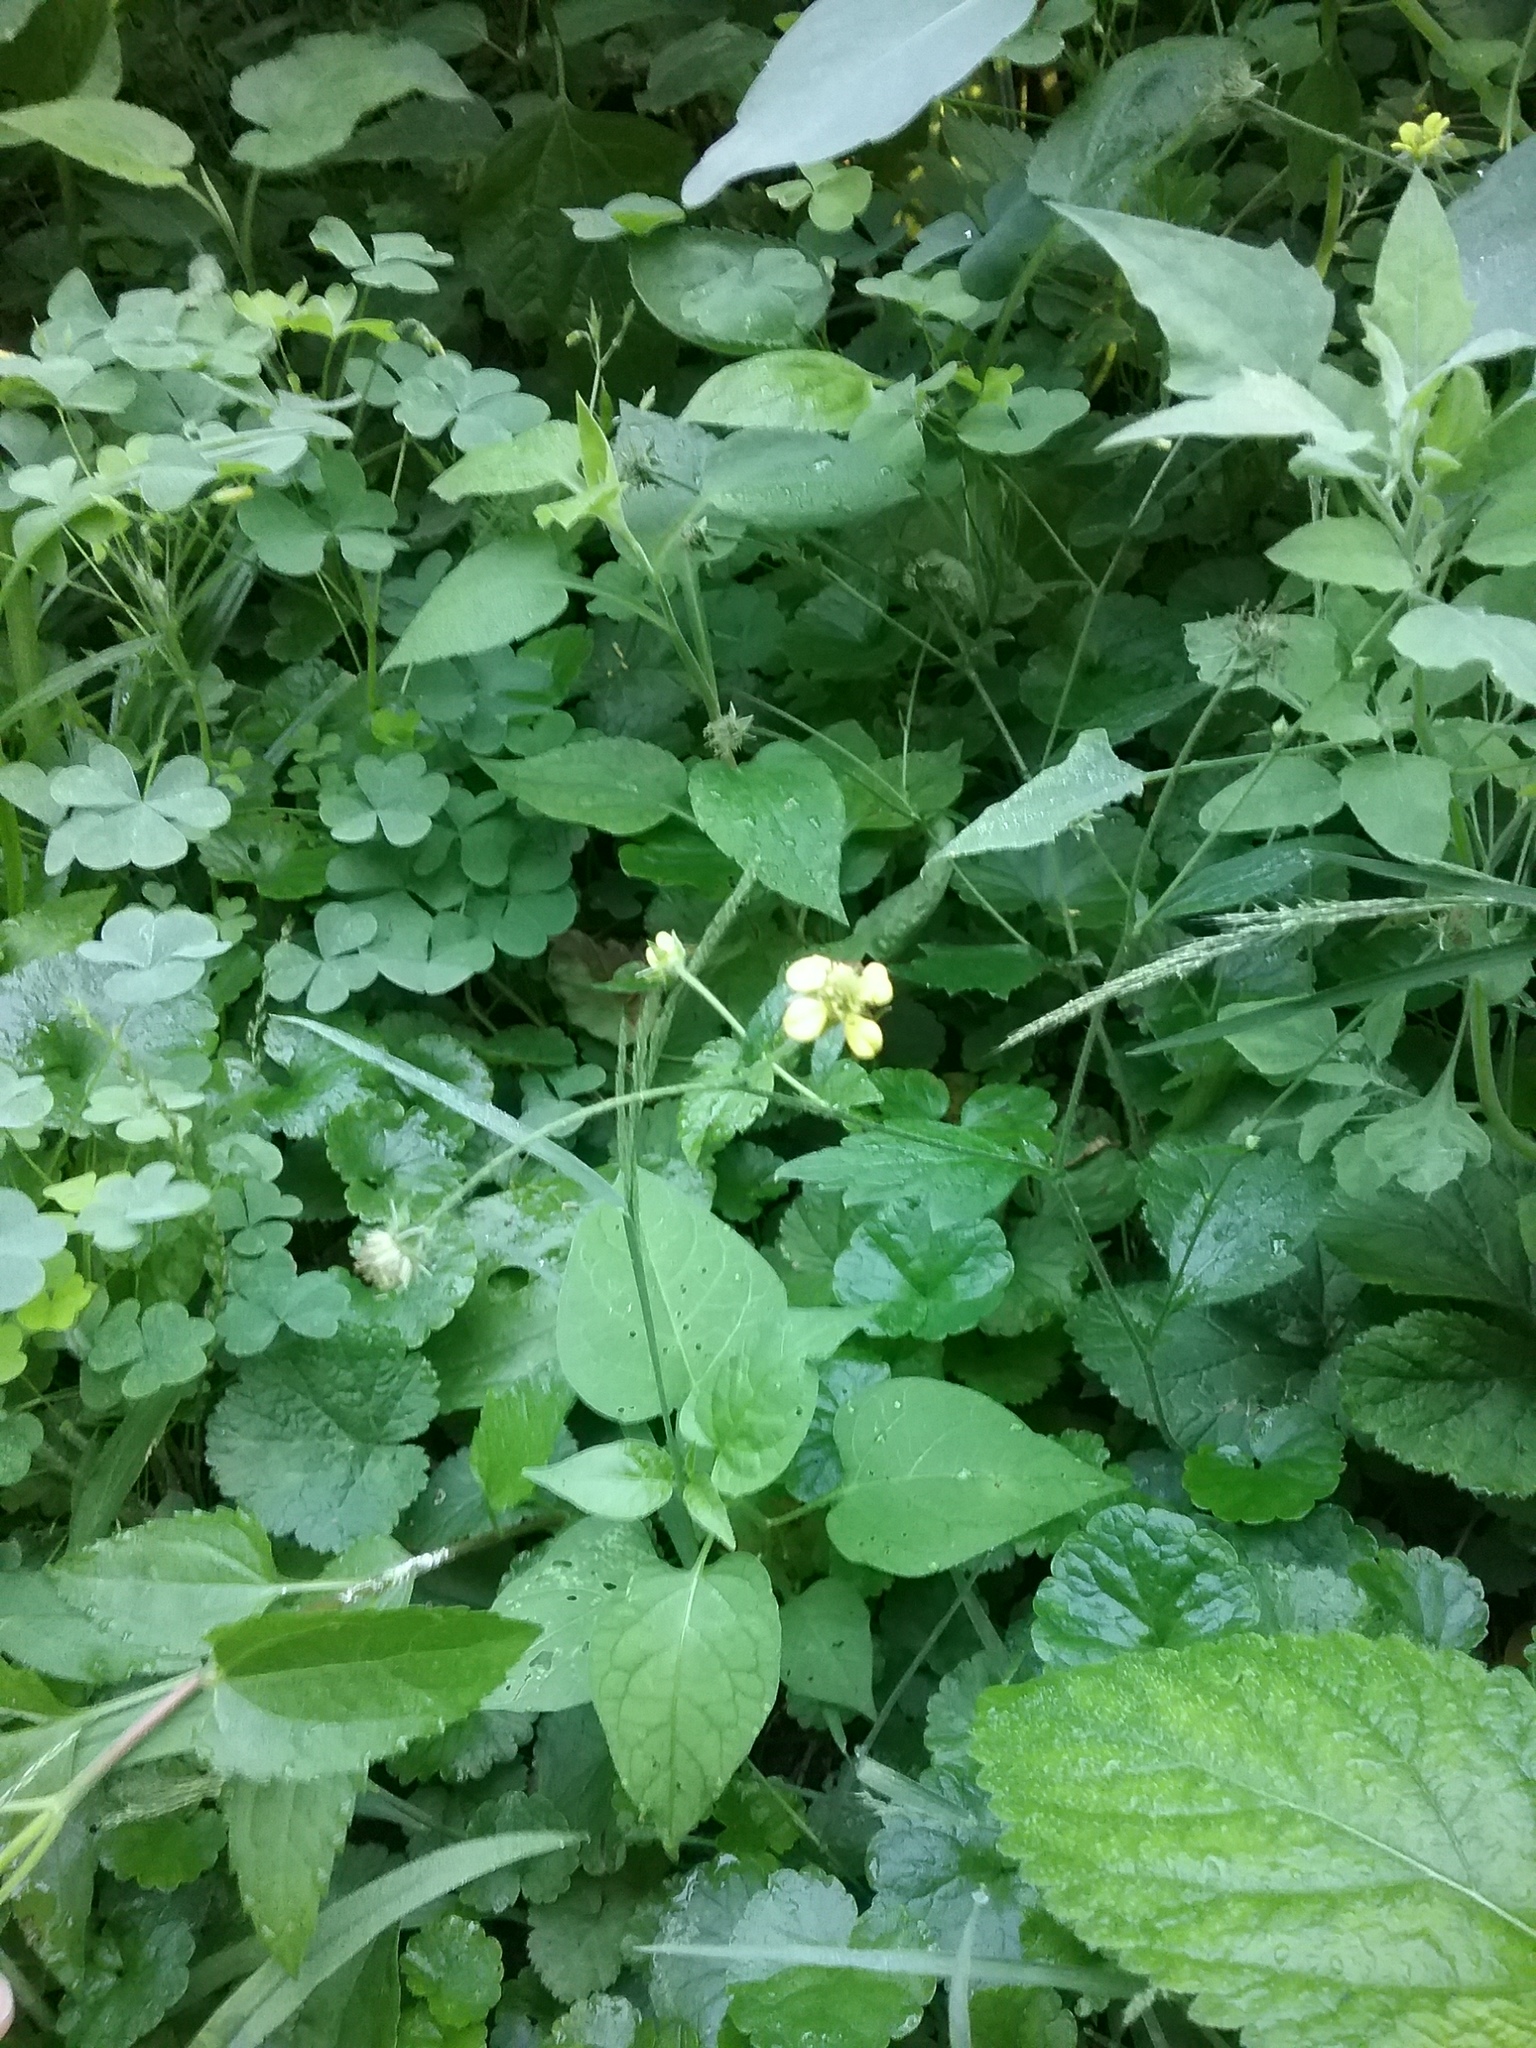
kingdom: Plantae
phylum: Tracheophyta
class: Magnoliopsida
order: Rosales
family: Rosaceae
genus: Geum
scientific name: Geum catlingii
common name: Catling's avens
